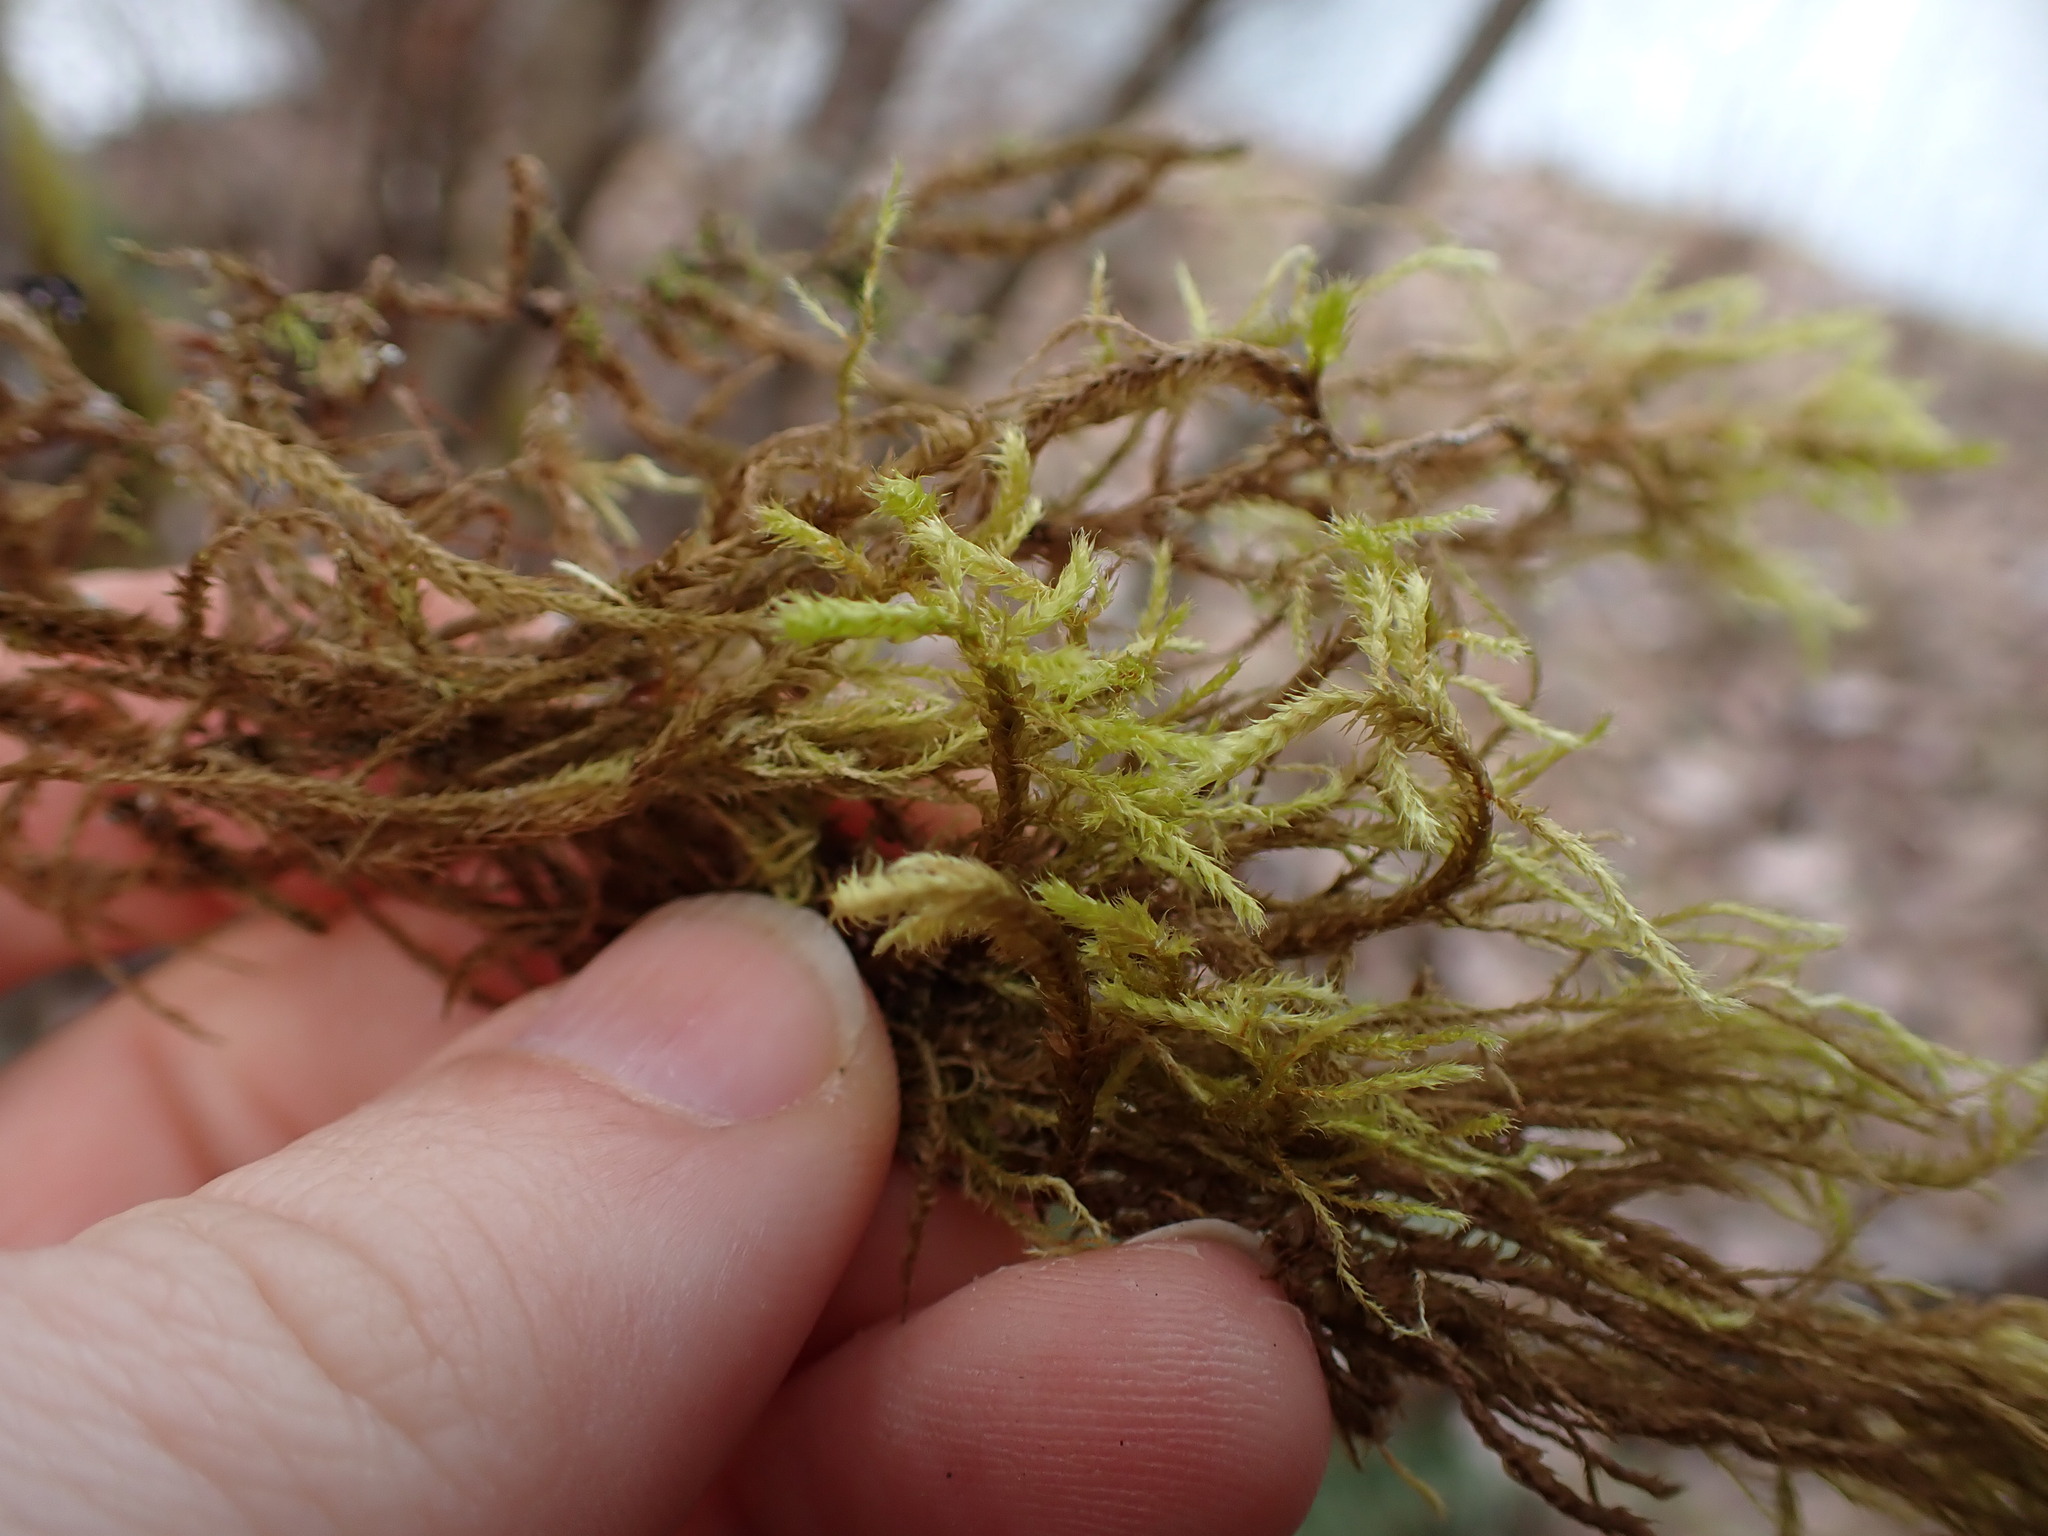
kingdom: Plantae
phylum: Bryophyta
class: Bryopsida
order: Hypnales
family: Antitrichiaceae
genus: Antitrichia
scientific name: Antitrichia curtipendula
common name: Pendulous wing-moss
